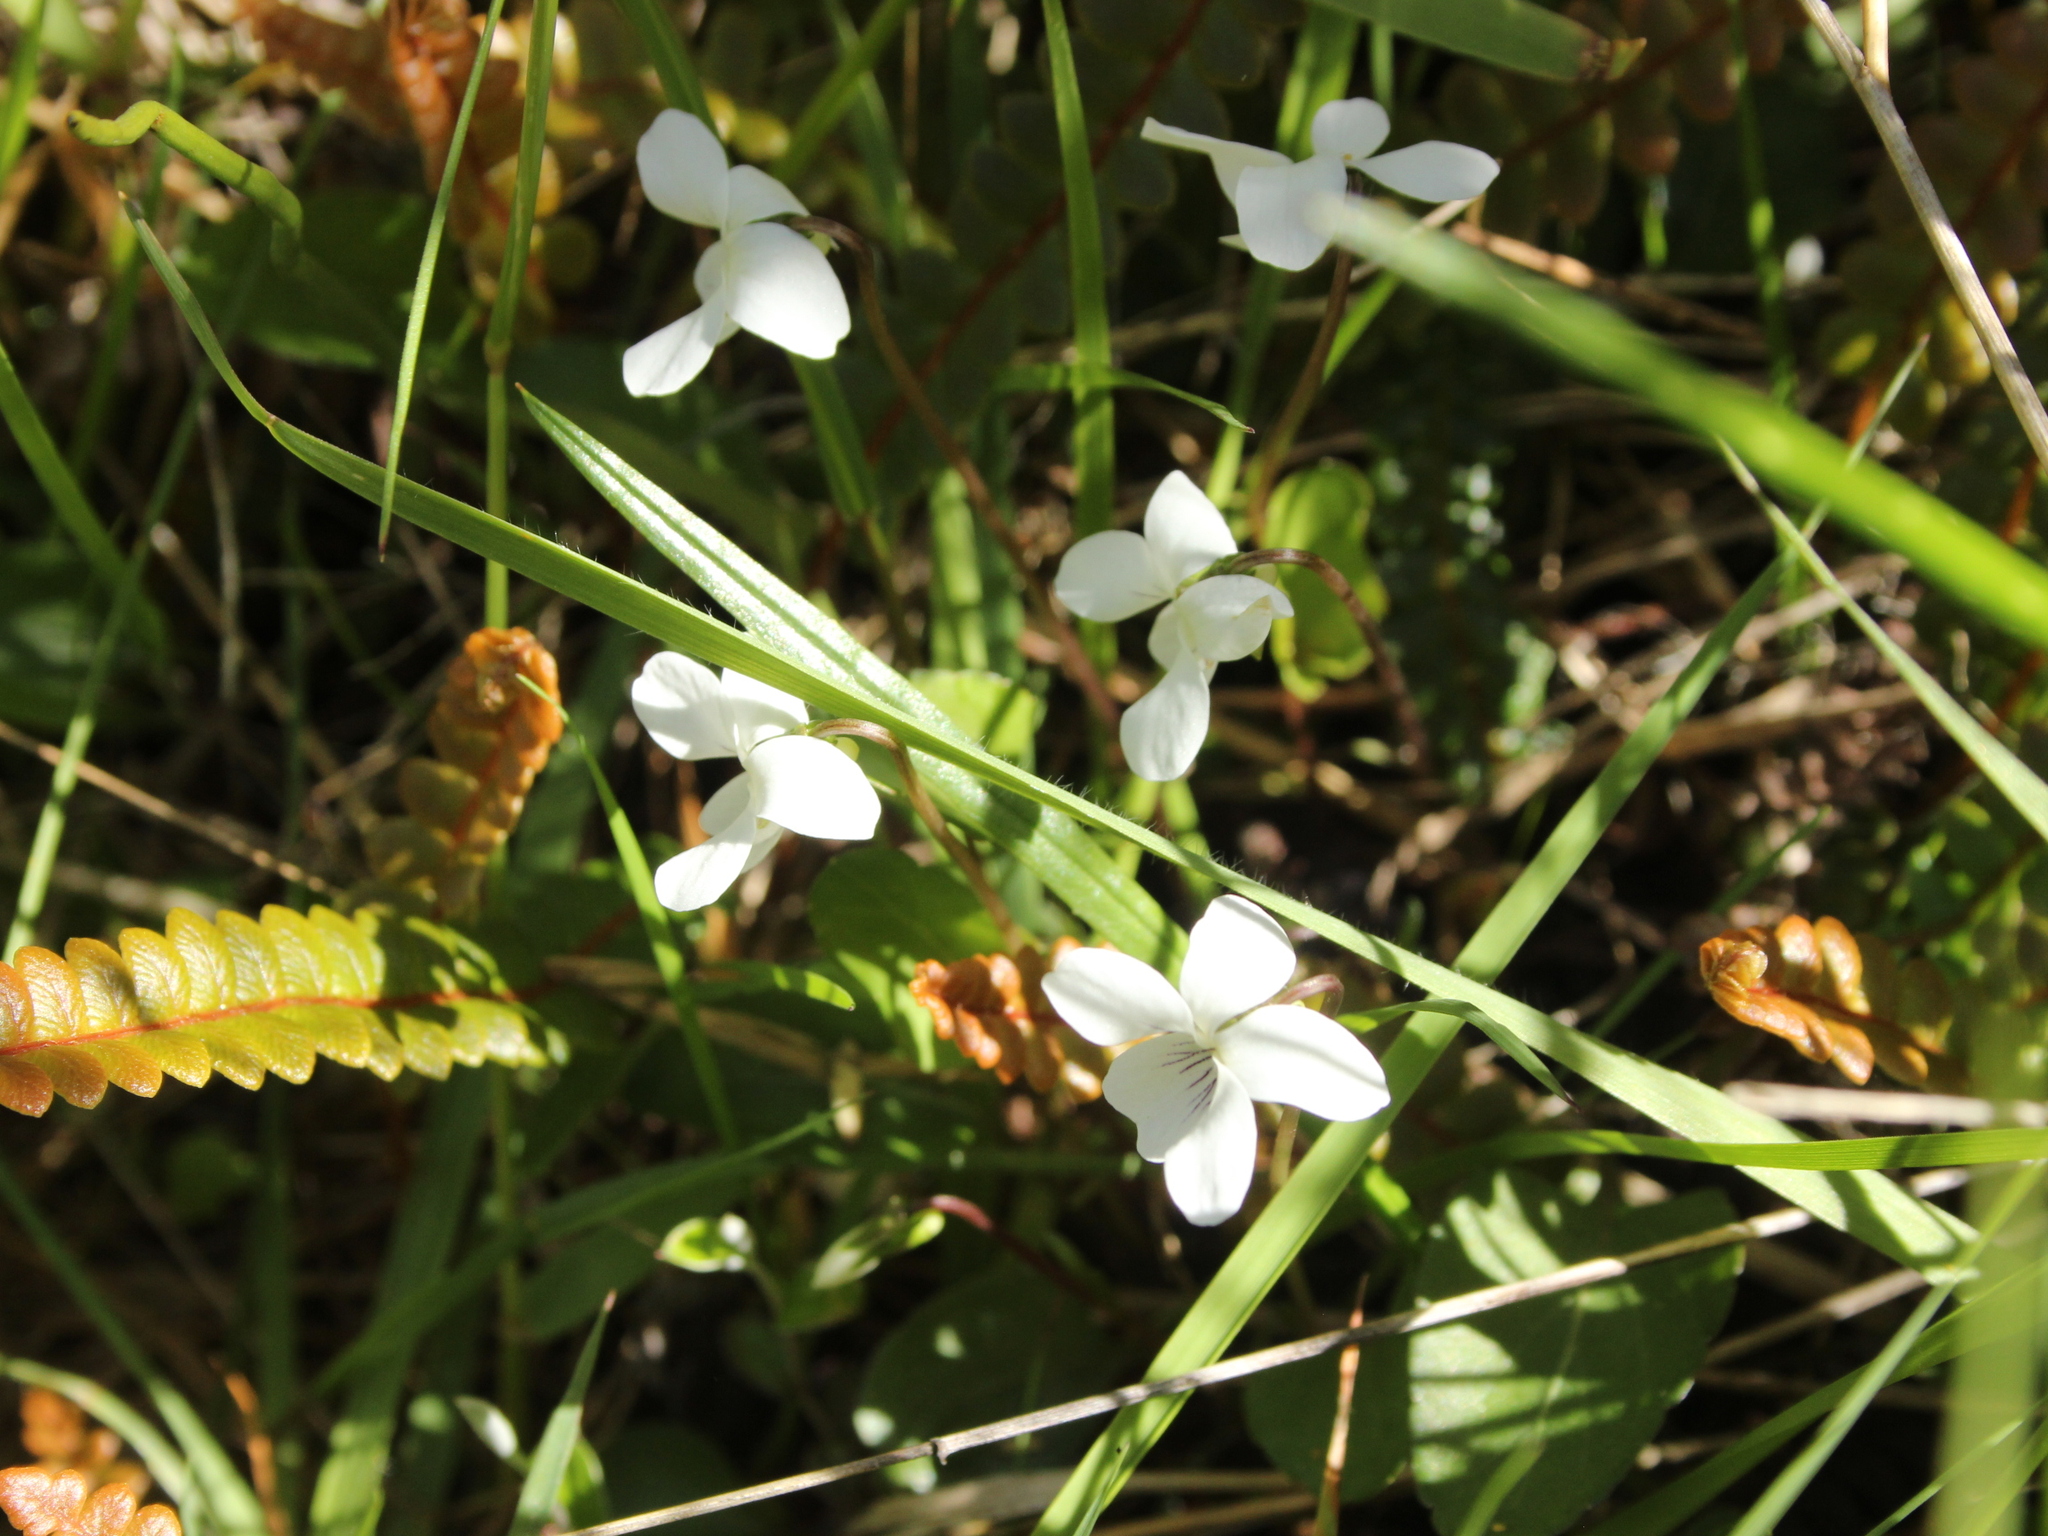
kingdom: Plantae
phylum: Tracheophyta
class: Magnoliopsida
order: Malpighiales
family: Violaceae
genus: Viola
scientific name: Viola cunninghamii
